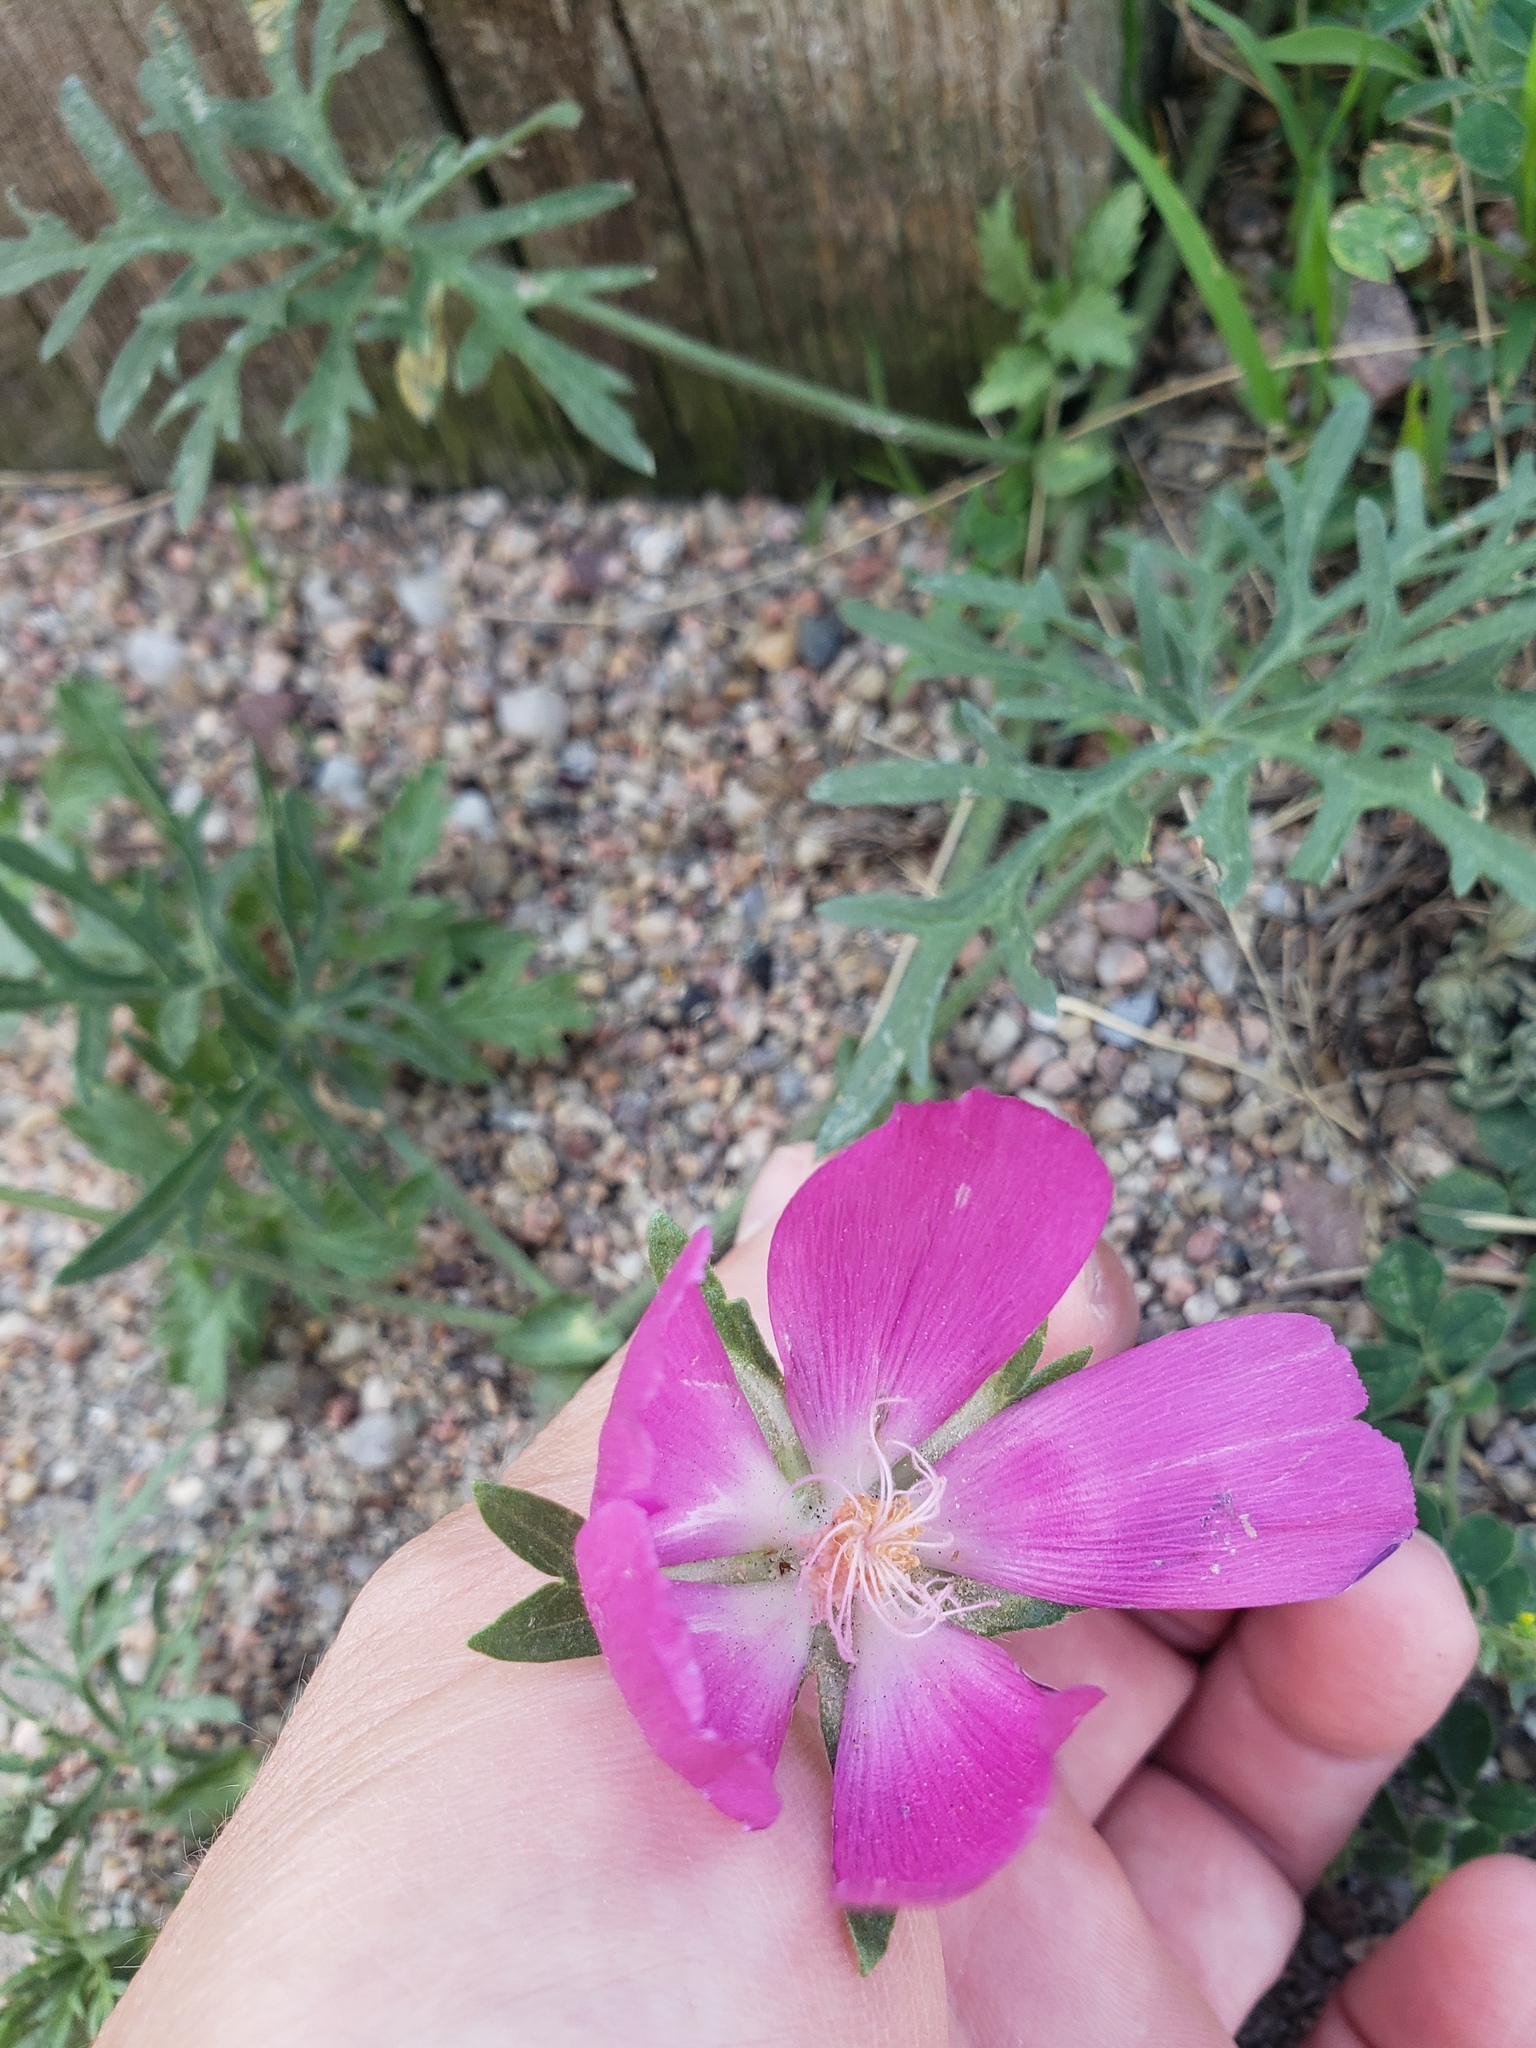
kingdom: Plantae
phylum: Tracheophyta
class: Magnoliopsida
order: Malvales
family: Malvaceae
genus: Callirhoe
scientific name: Callirhoe involucrata
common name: Purple poppy-mallow
